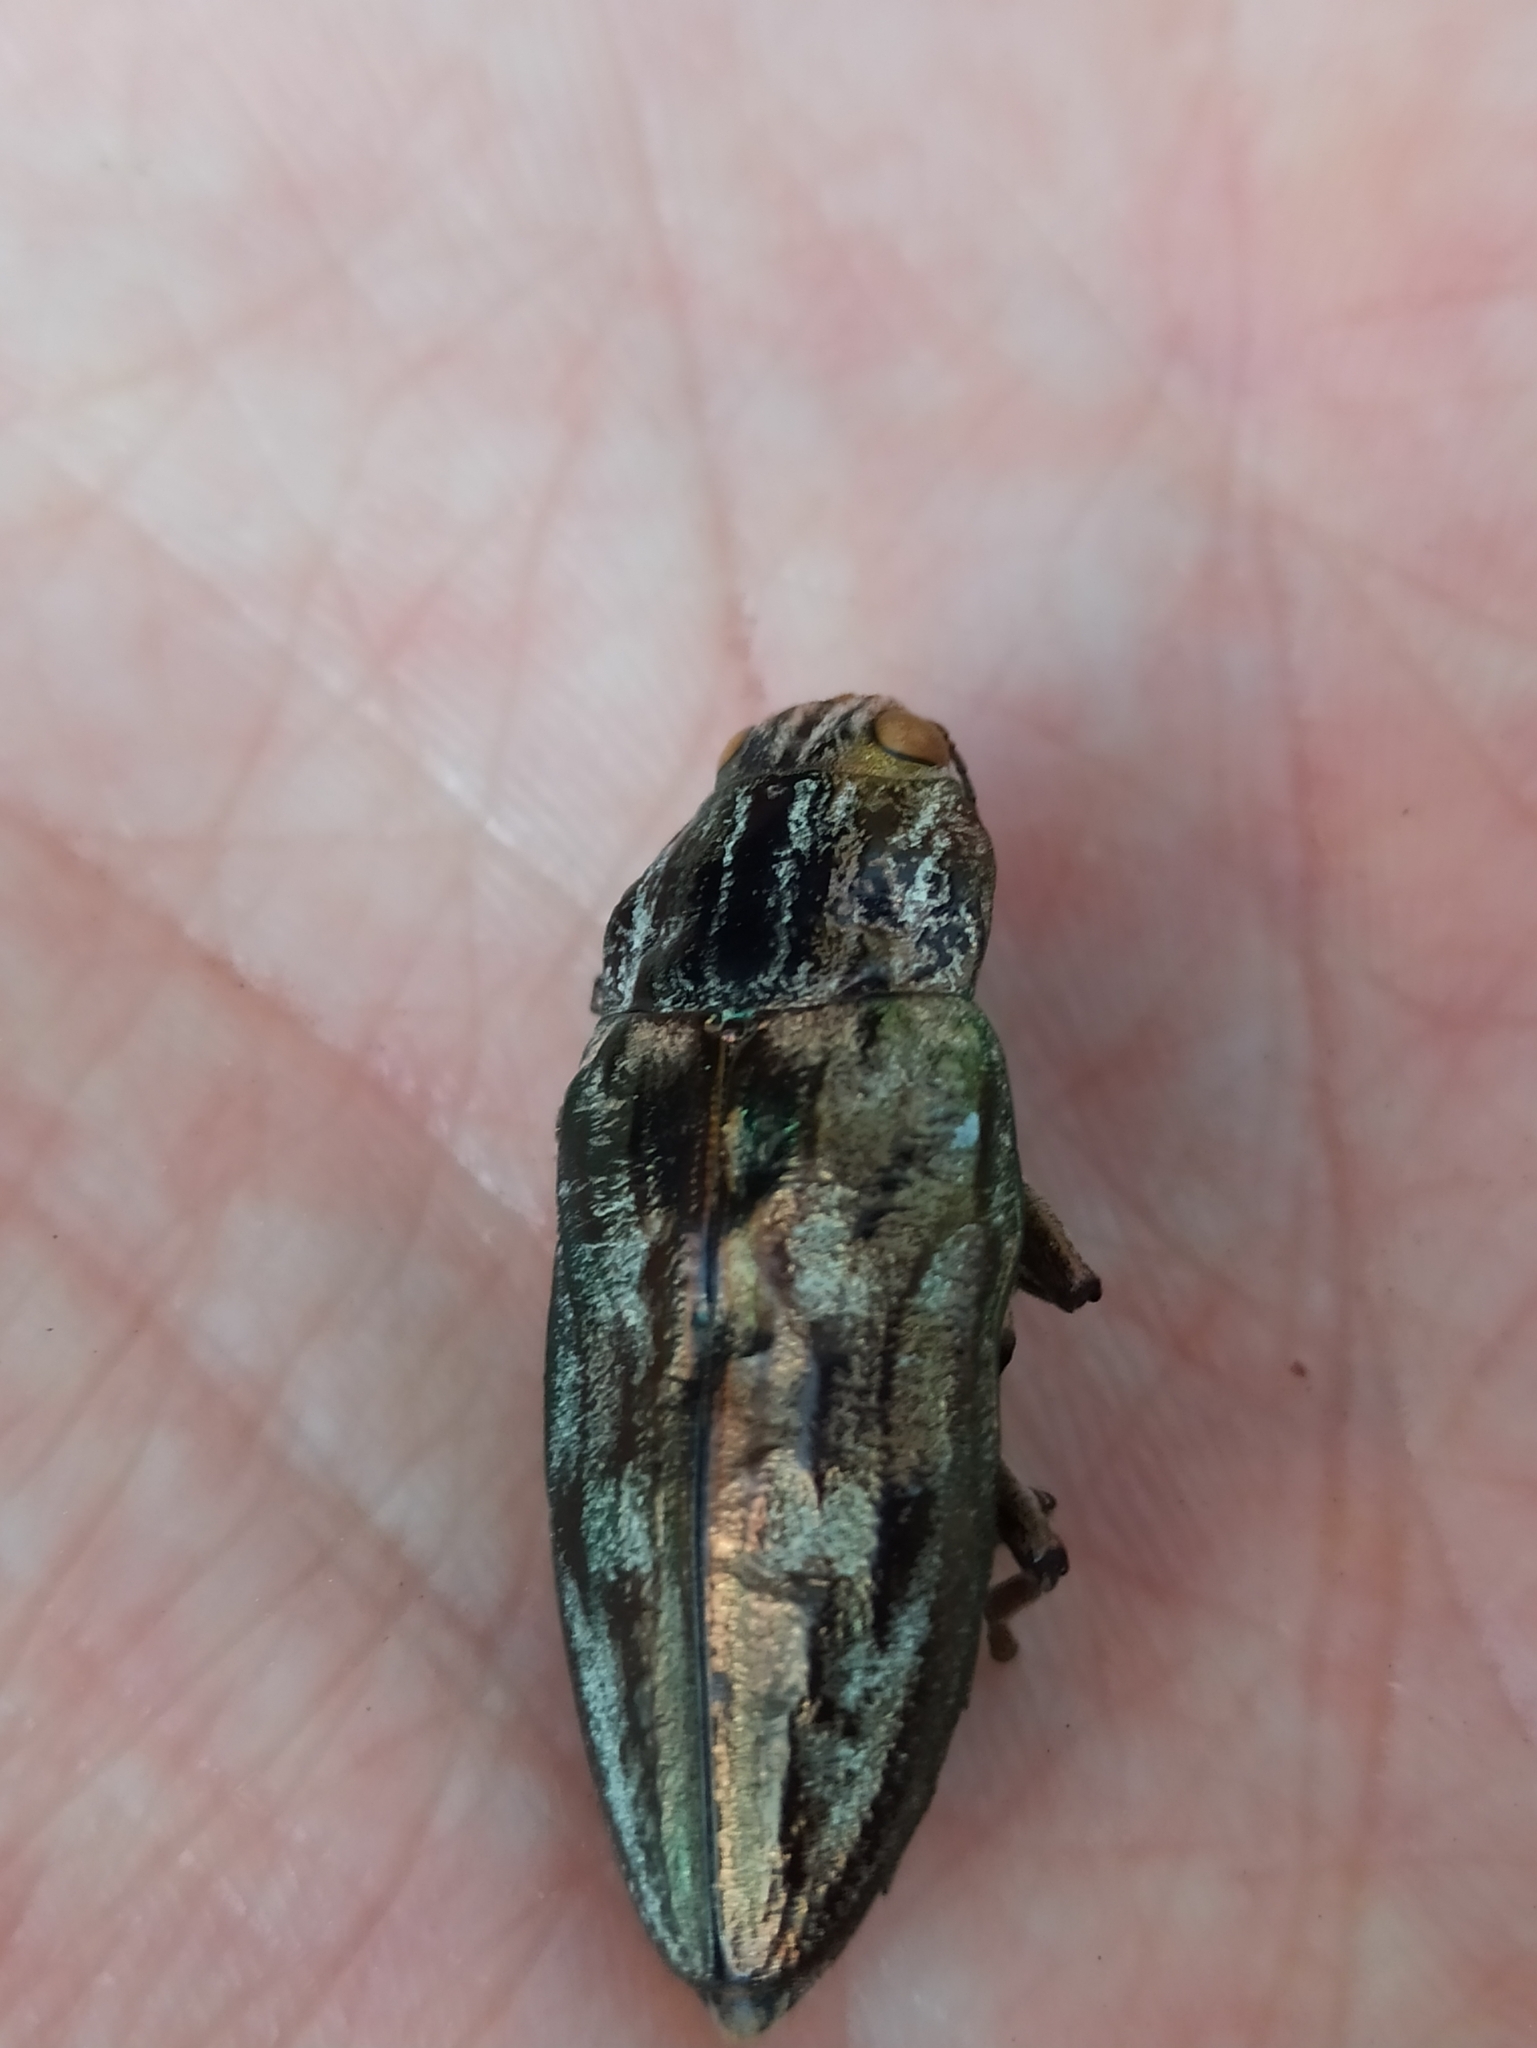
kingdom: Animalia
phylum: Arthropoda
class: Insecta
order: Coleoptera
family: Buprestidae
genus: Chalcophora
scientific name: Chalcophora massiliensis
